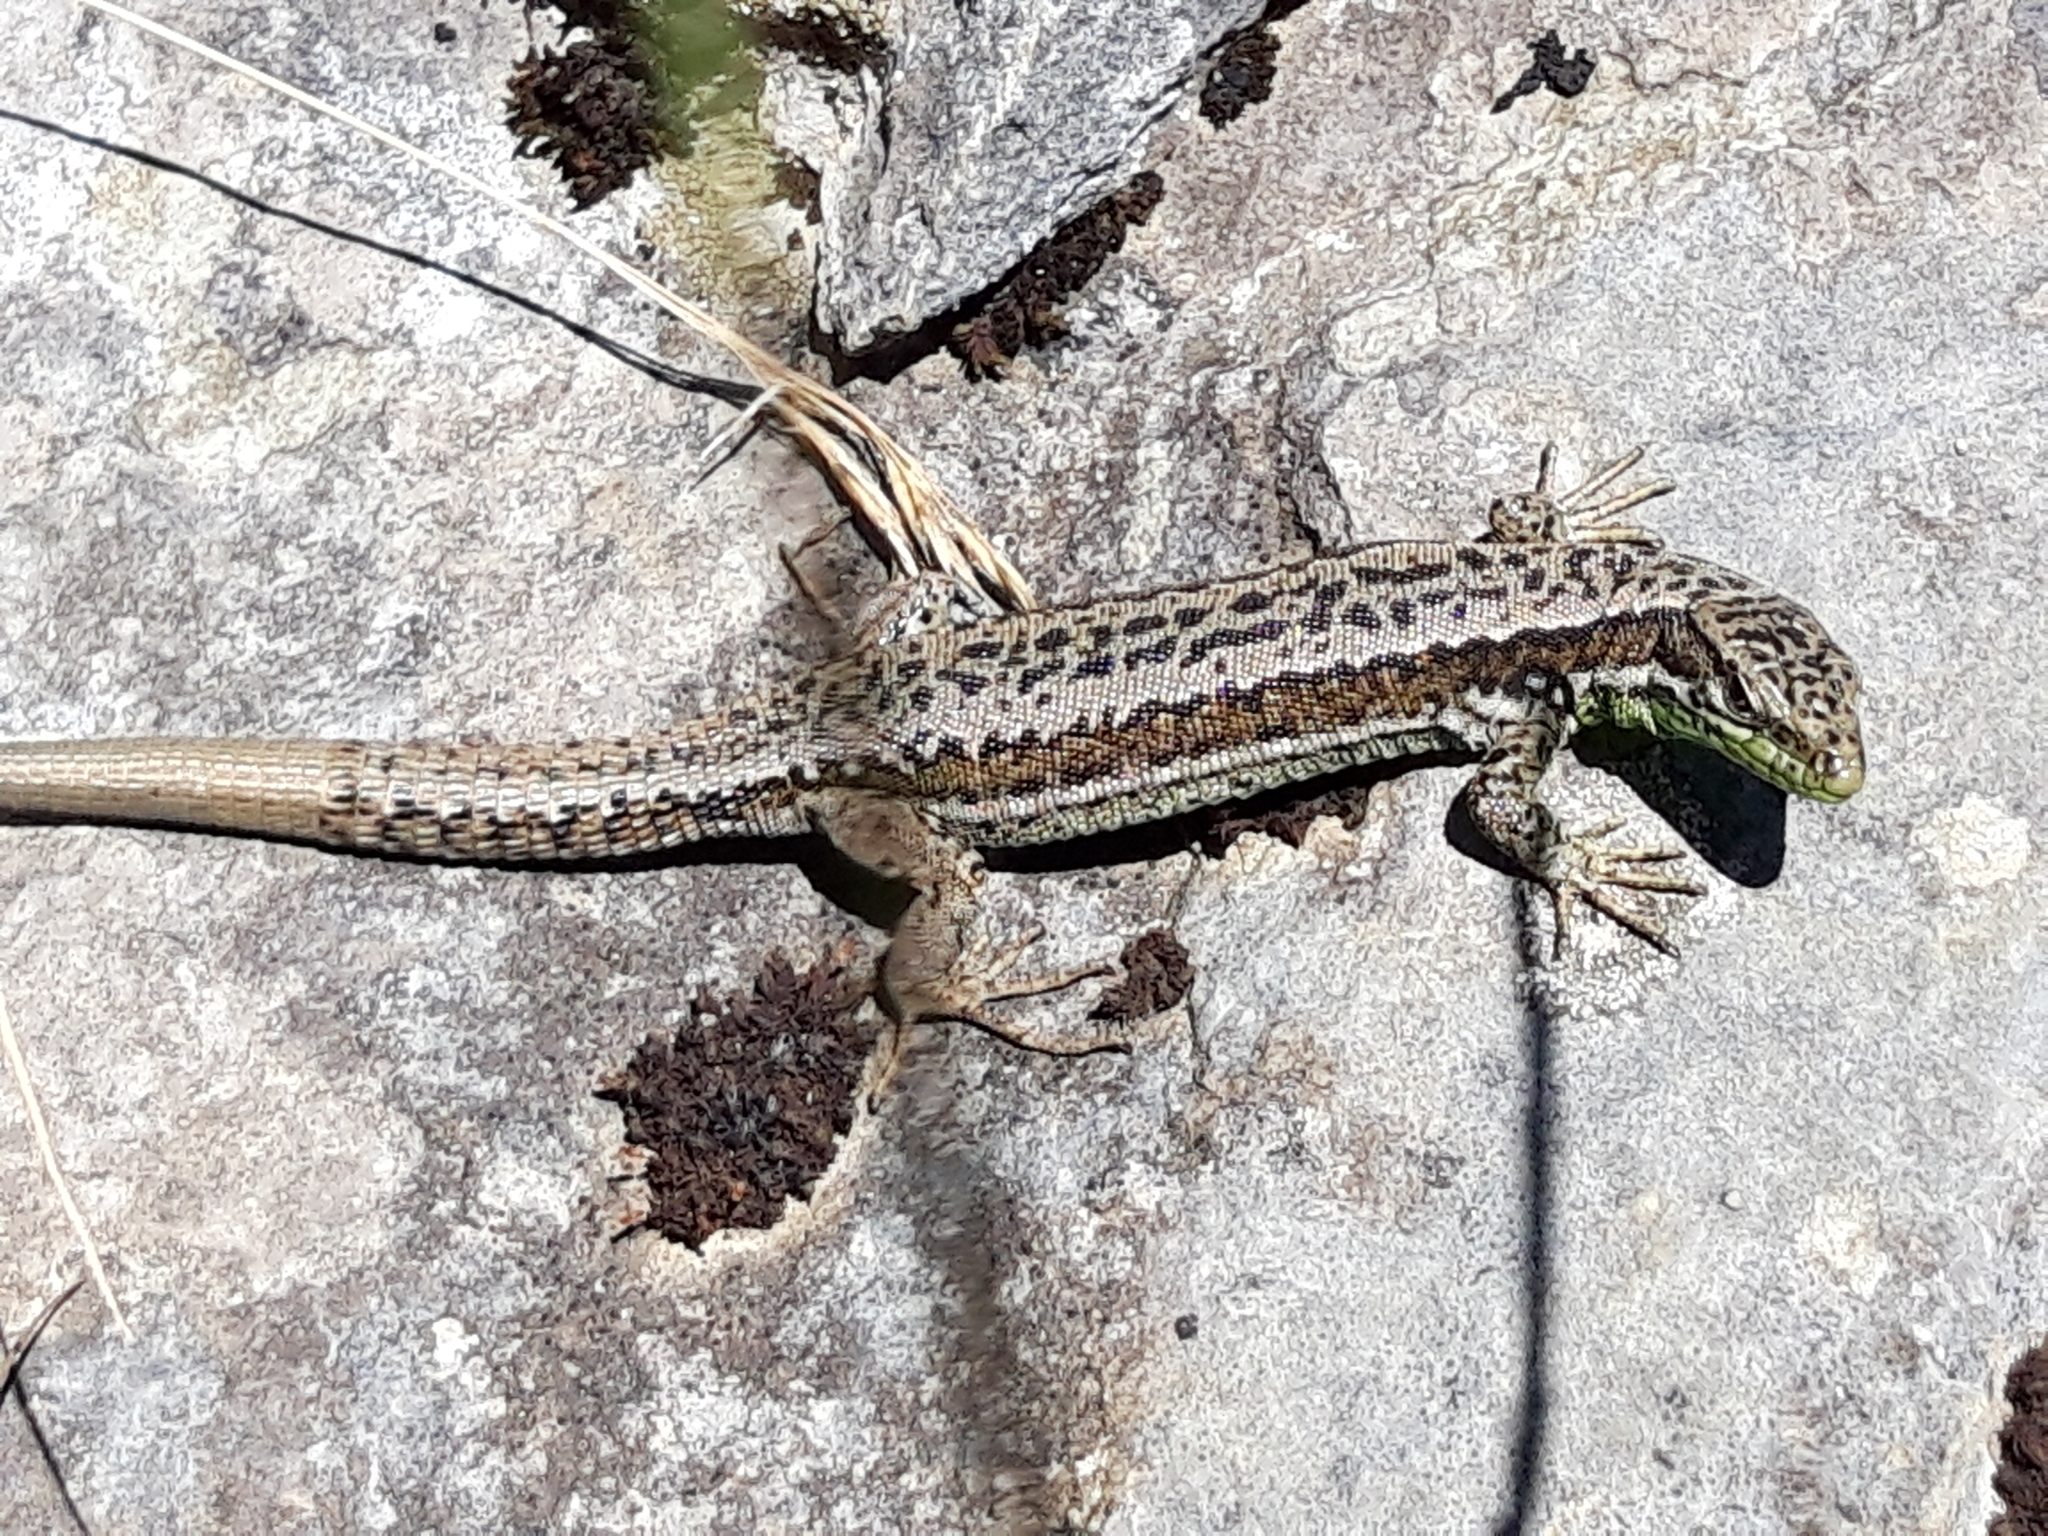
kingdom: Animalia
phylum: Chordata
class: Squamata
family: Lacertidae
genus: Iberolacerta
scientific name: Iberolacerta monticola
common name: Iberian mountain lizard
